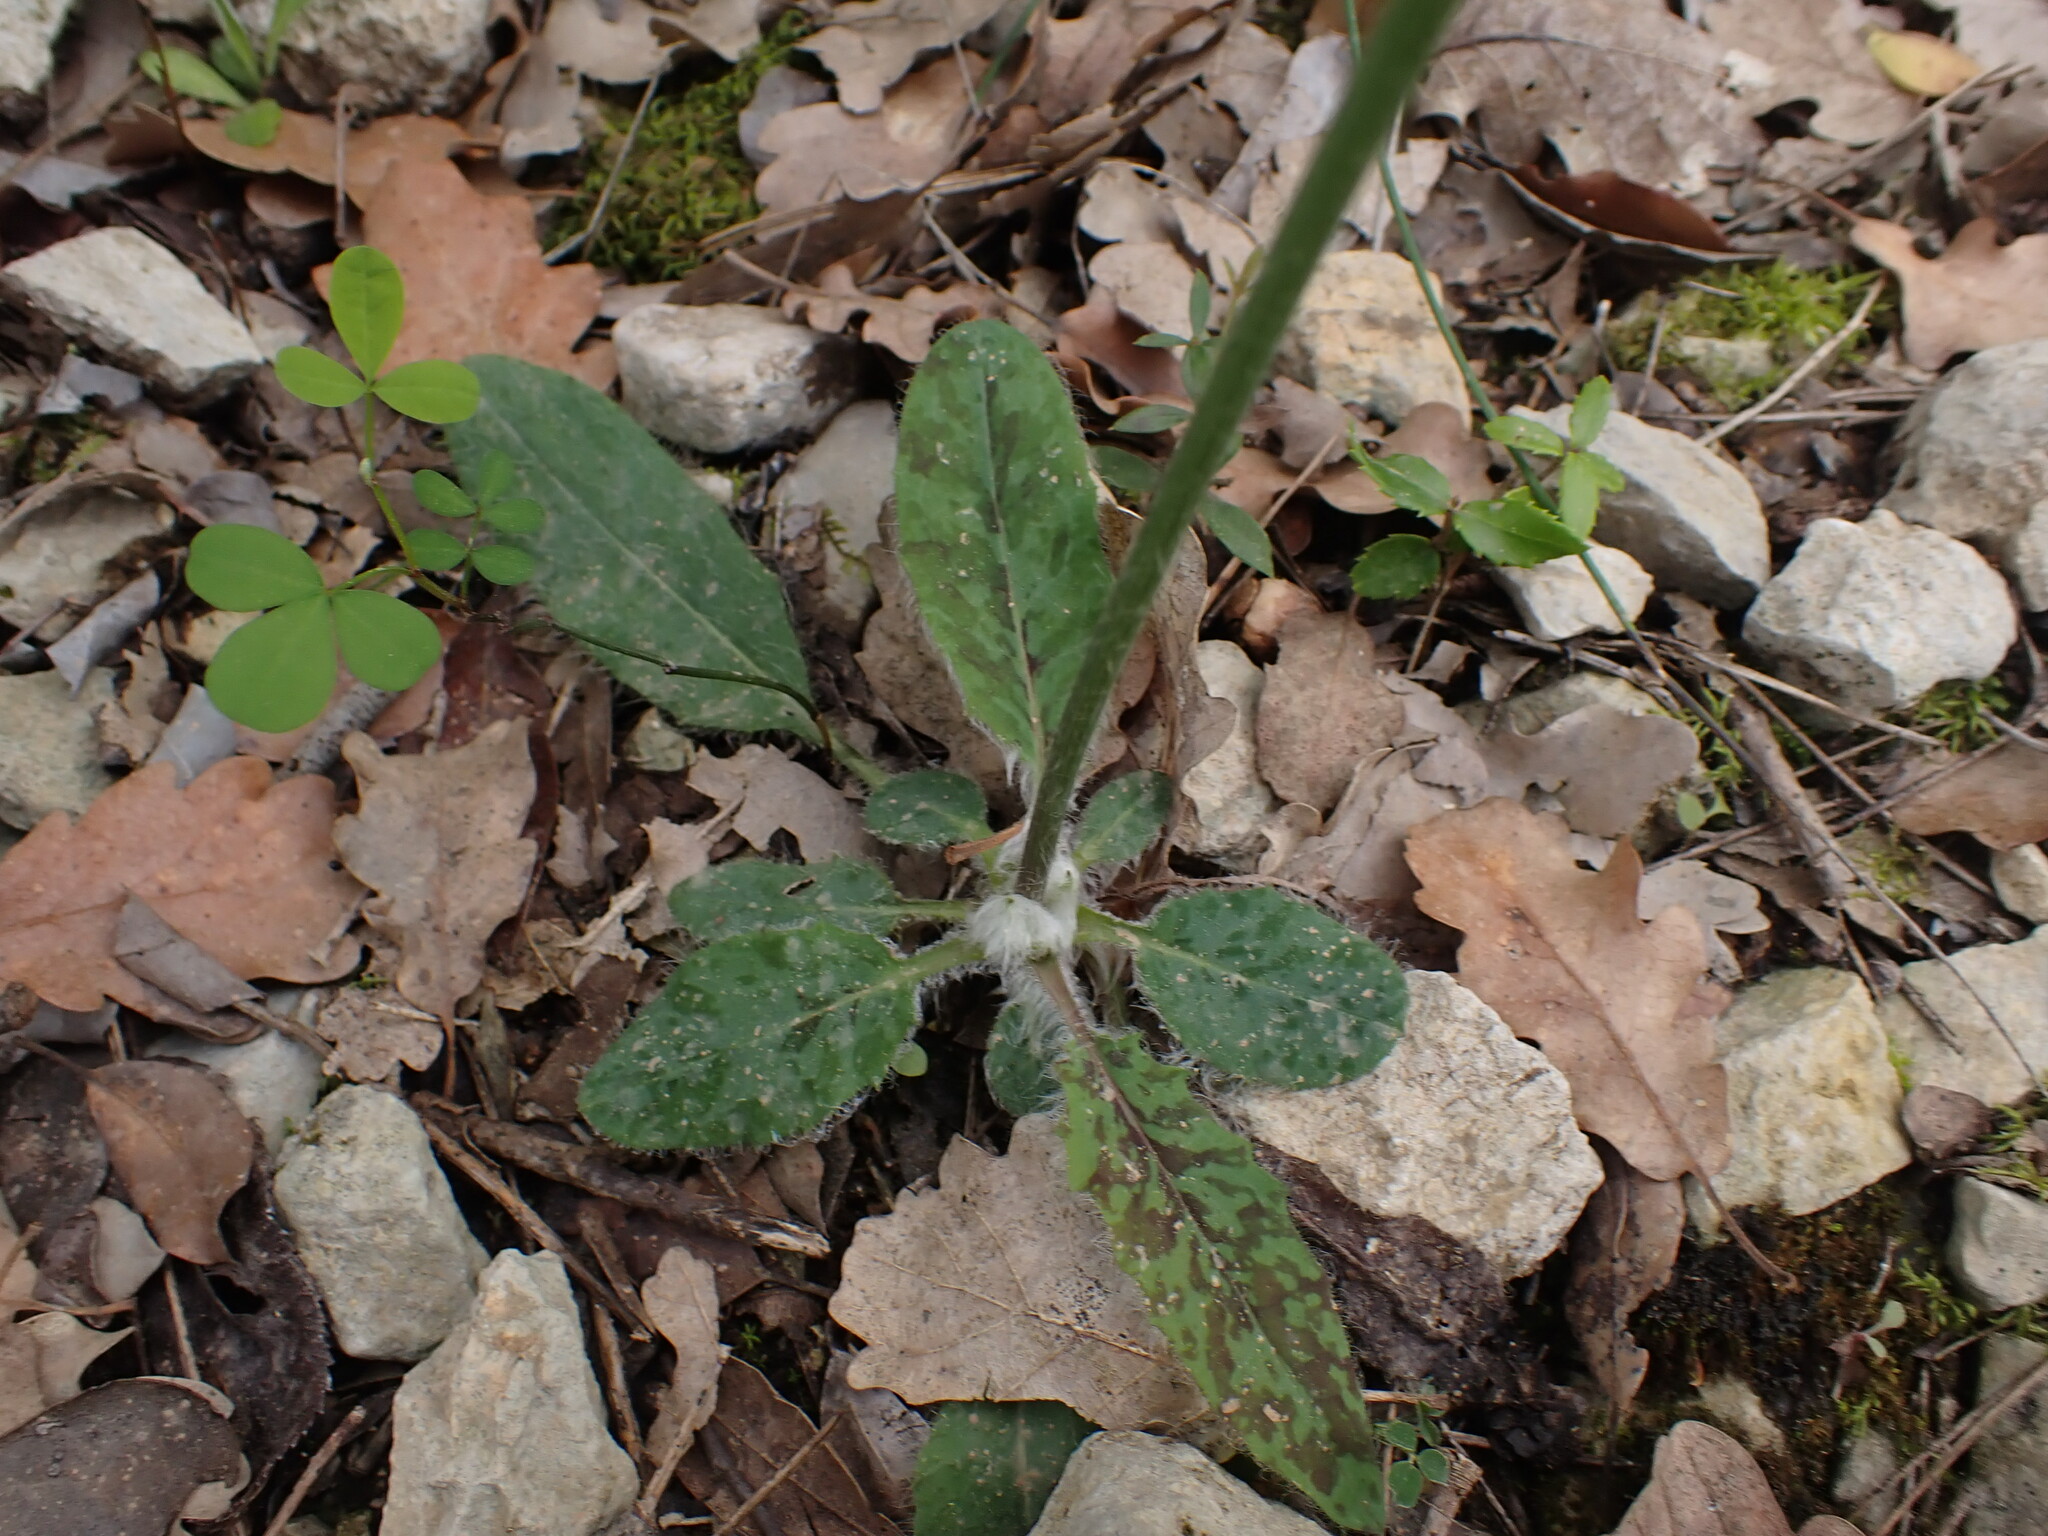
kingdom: Plantae
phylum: Tracheophyta
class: Magnoliopsida
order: Asterales
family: Asteraceae
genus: Hieracium
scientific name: Hieracium glaucinum
